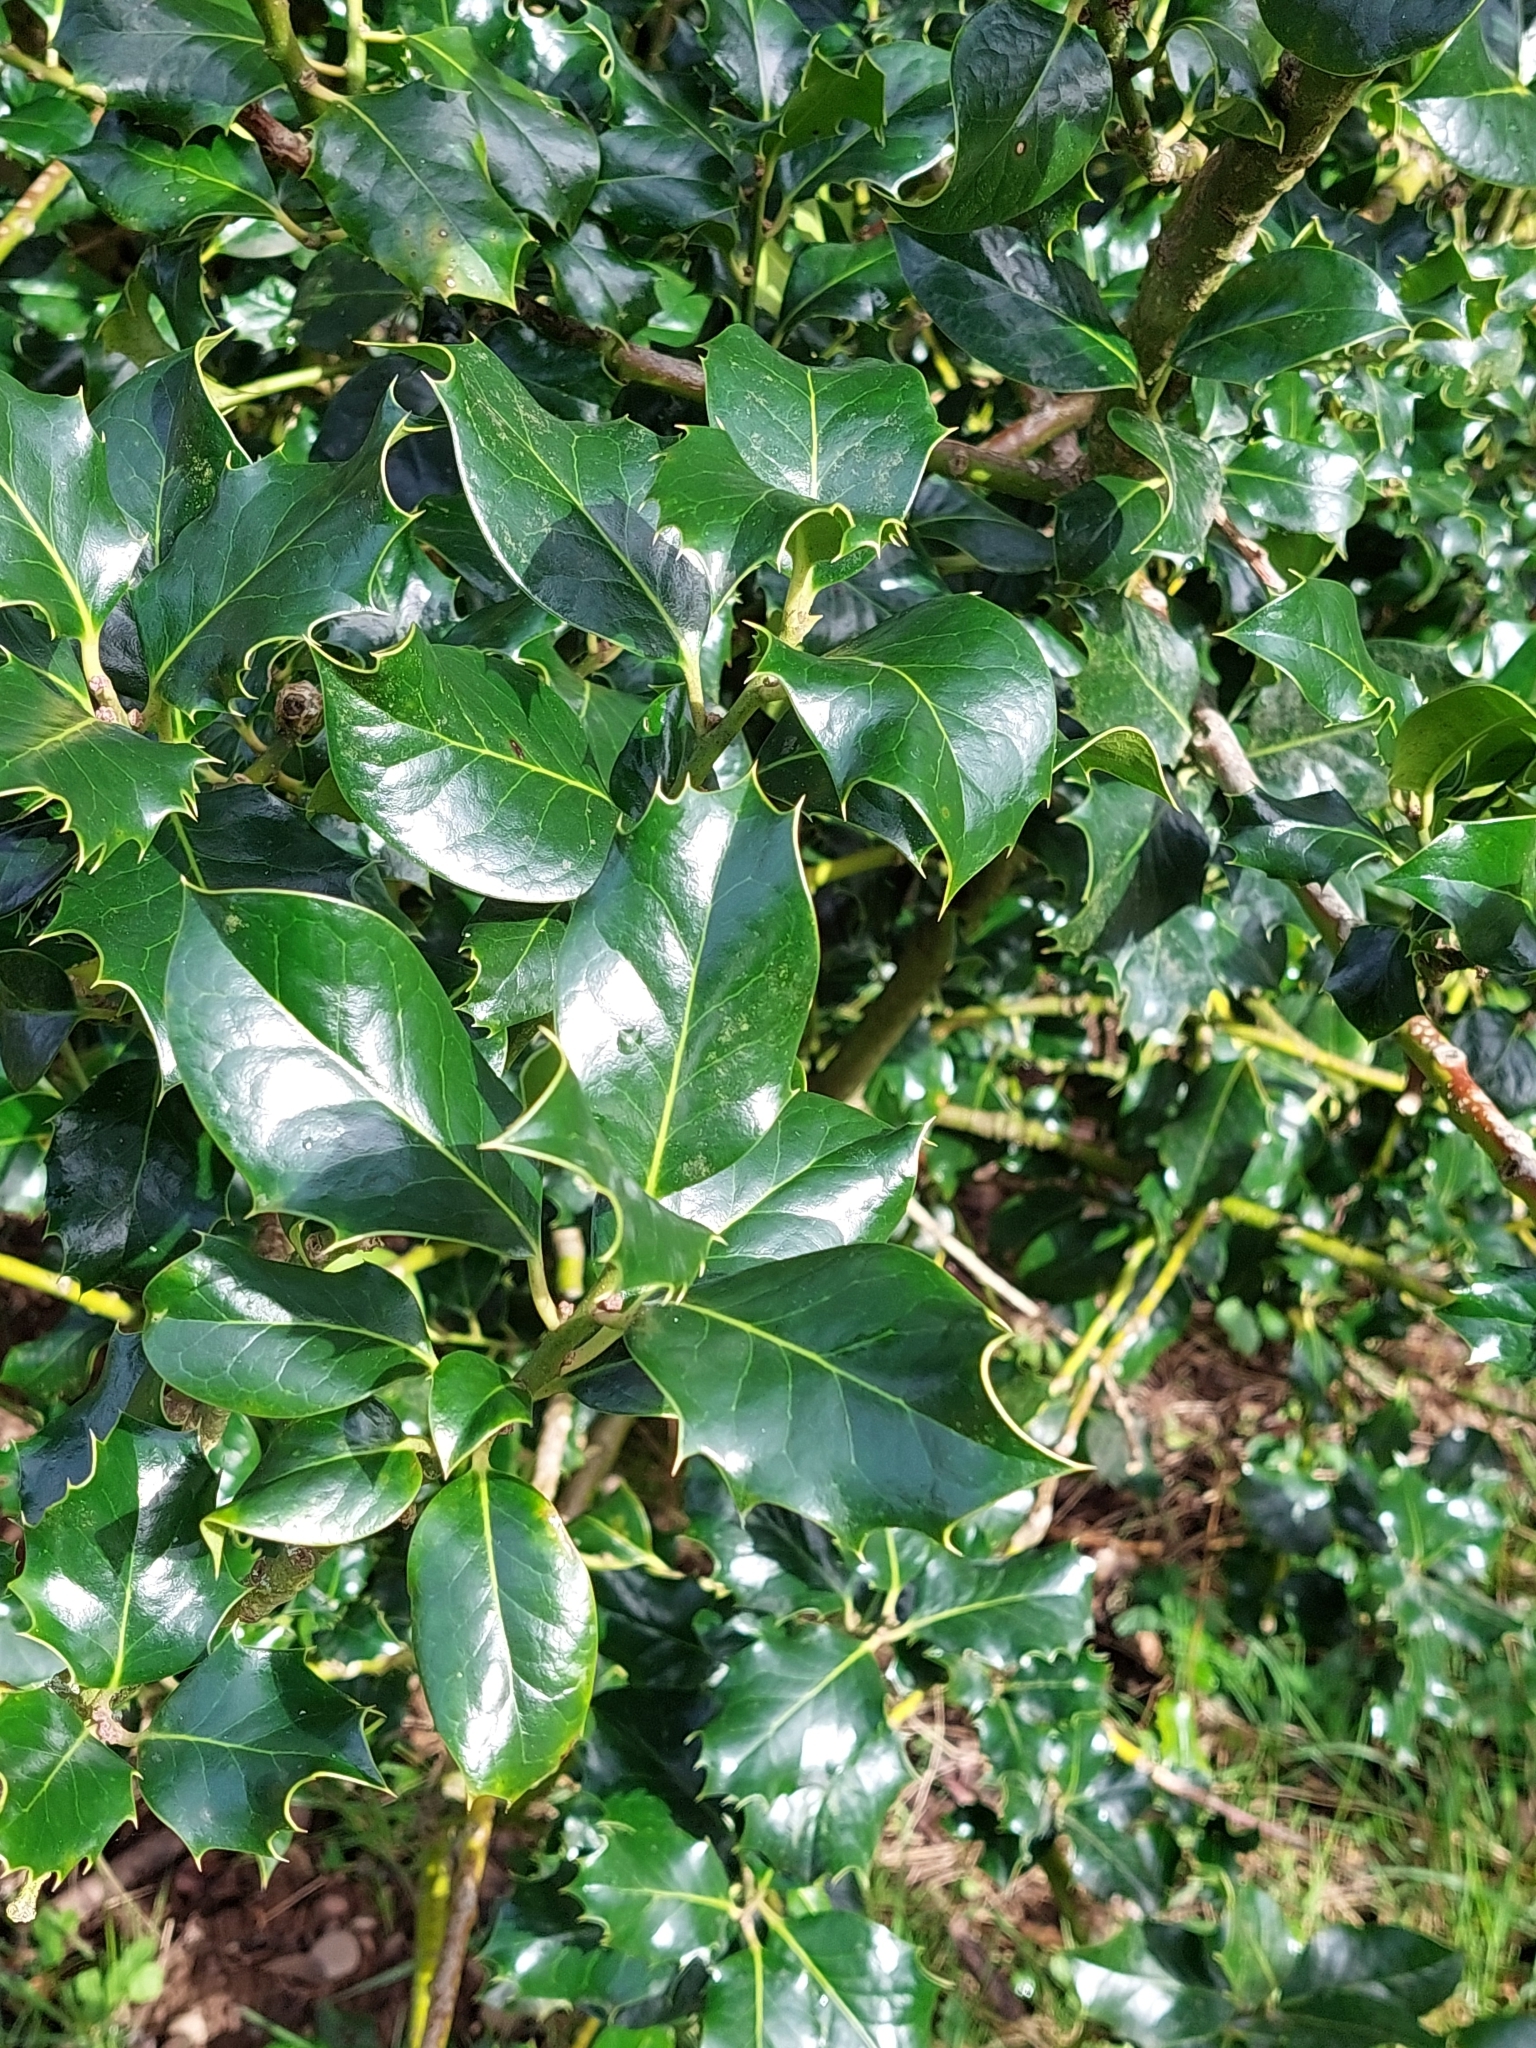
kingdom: Plantae
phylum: Tracheophyta
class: Magnoliopsida
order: Aquifoliales
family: Aquifoliaceae
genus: Ilex
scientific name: Ilex aquifolium
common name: English holly
